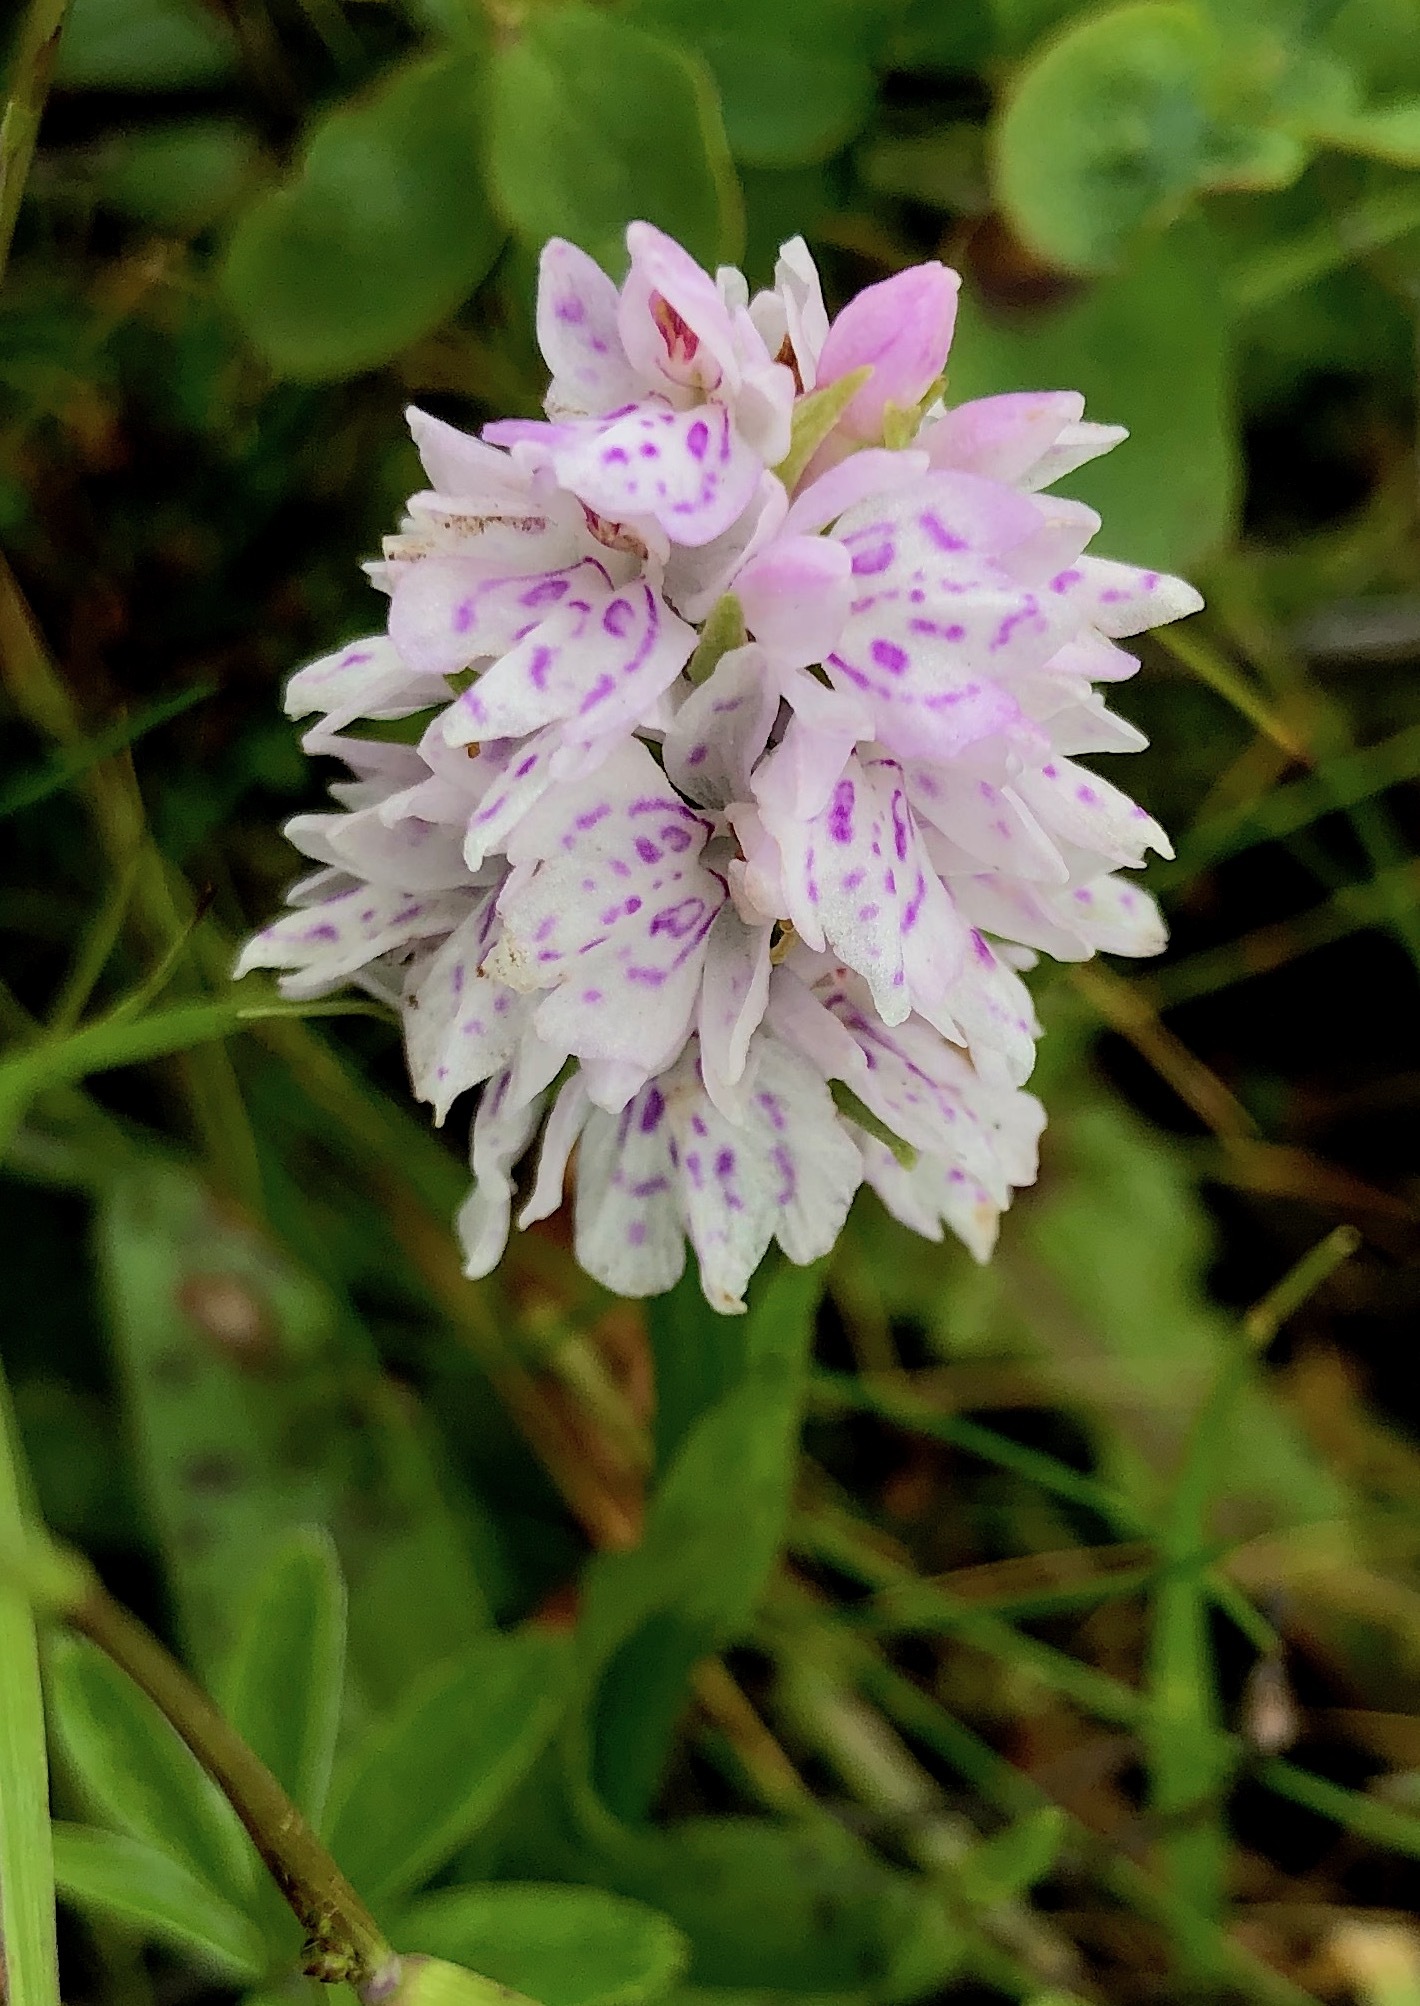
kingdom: Plantae
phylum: Tracheophyta
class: Liliopsida
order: Asparagales
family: Orchidaceae
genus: Dactylorhiza
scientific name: Dactylorhiza maculata
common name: Heath spotted-orchid
